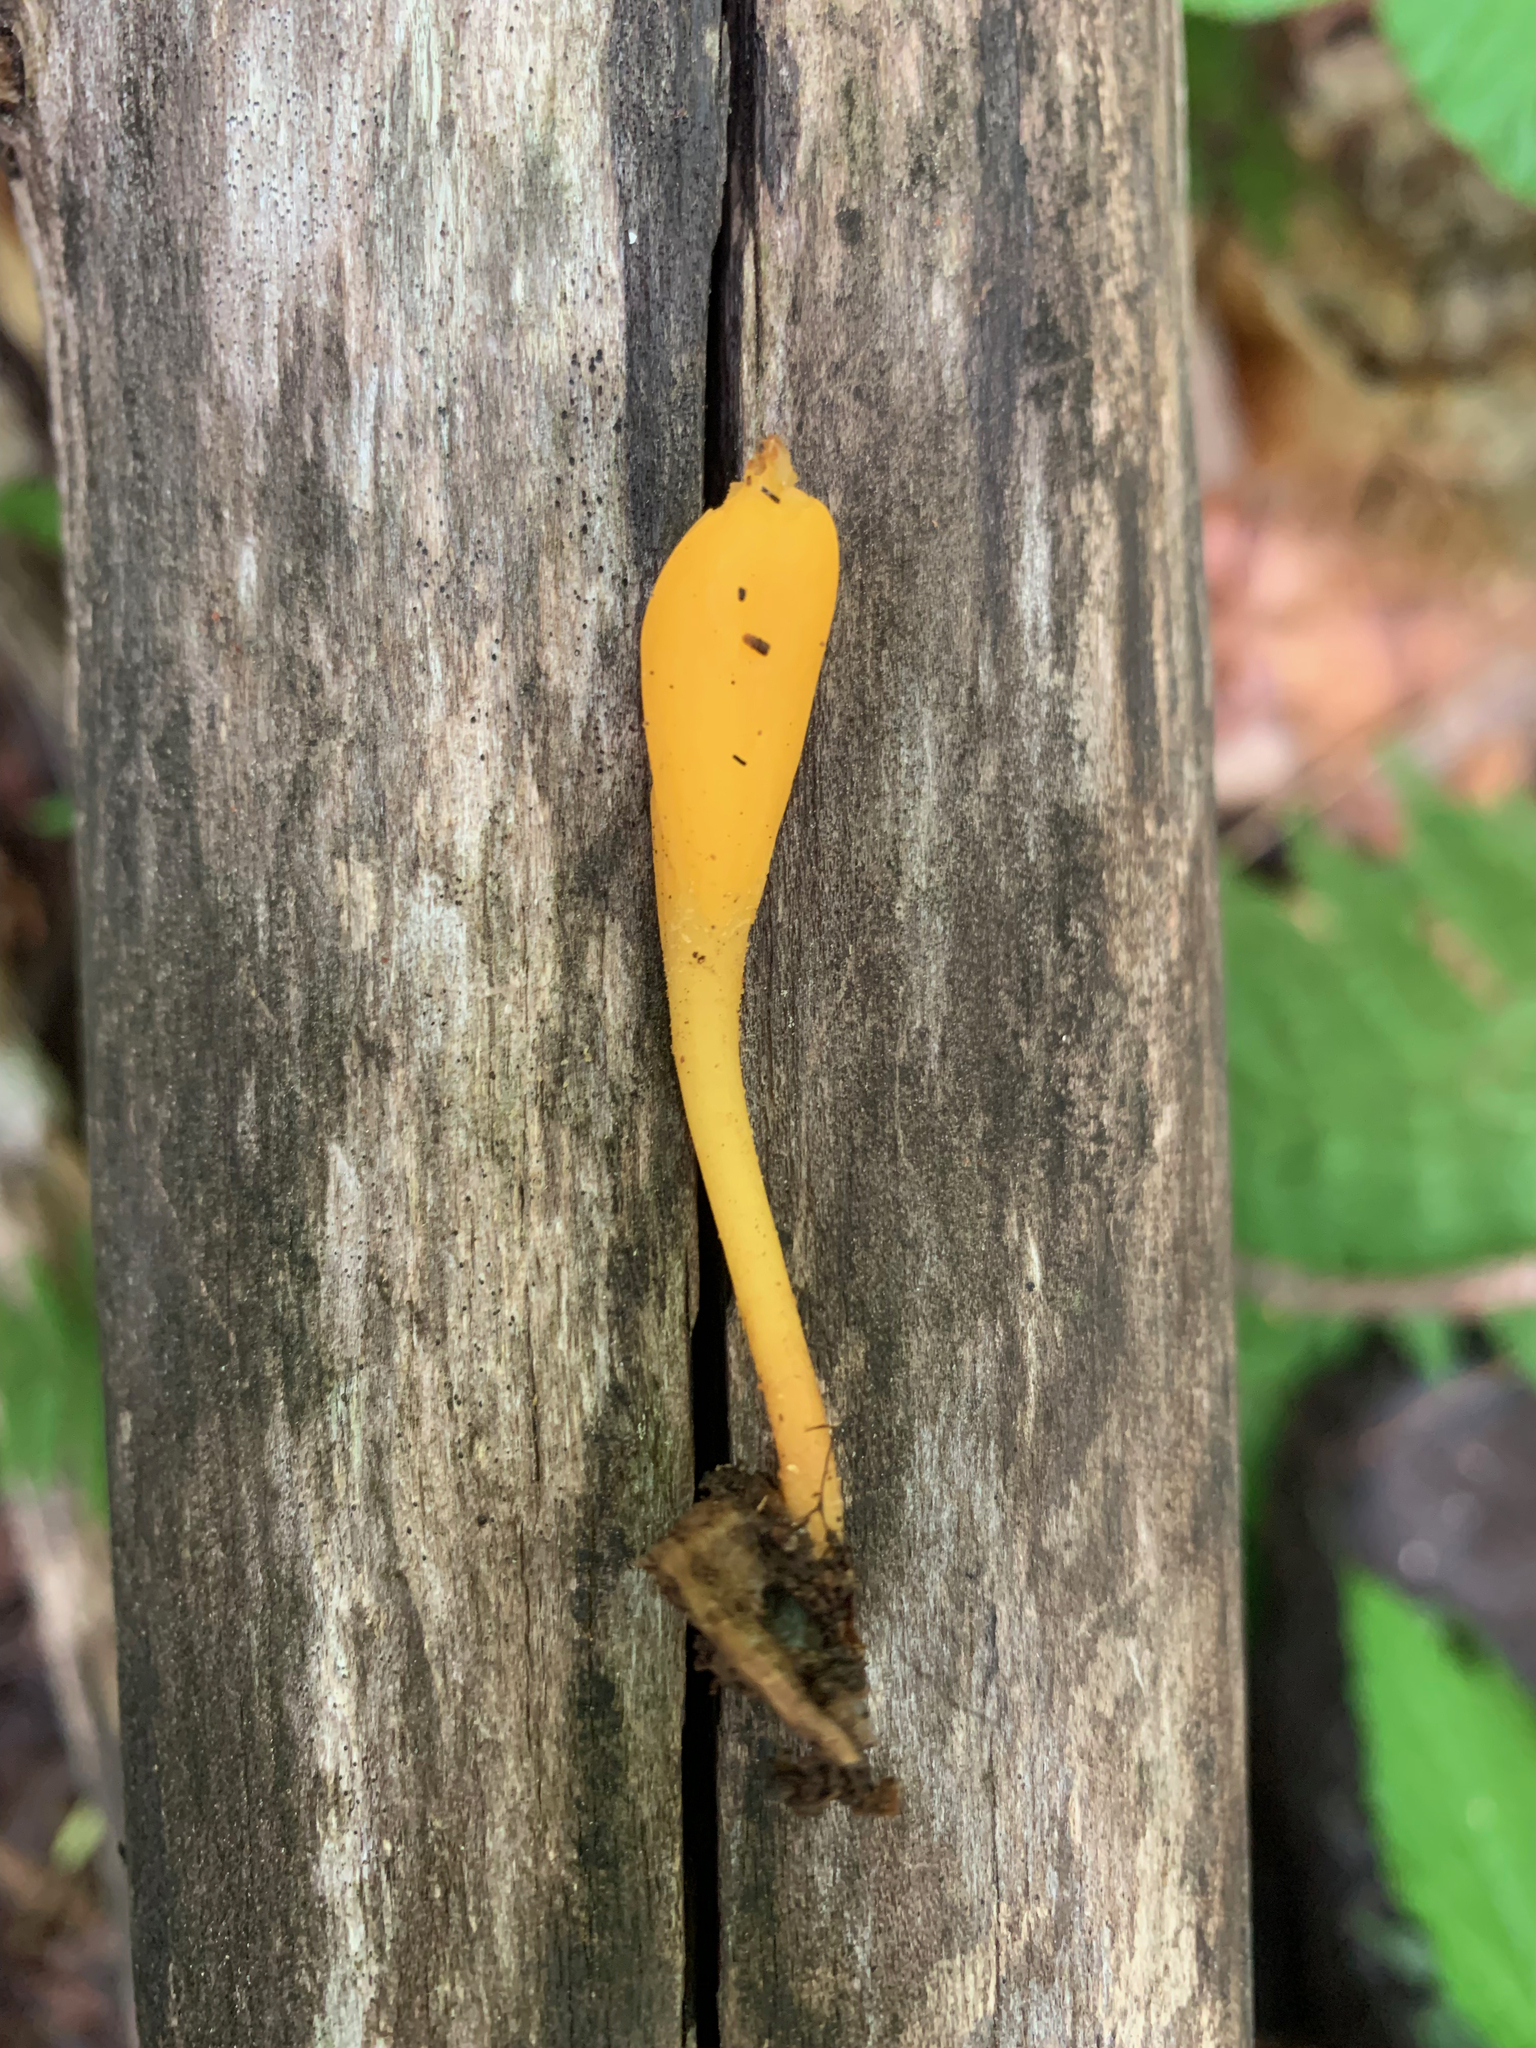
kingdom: Fungi
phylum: Ascomycota
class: Leotiomycetes
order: Leotiales
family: Leotiaceae
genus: Microglossum
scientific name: Microglossum rufum
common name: Orange earthtongue
